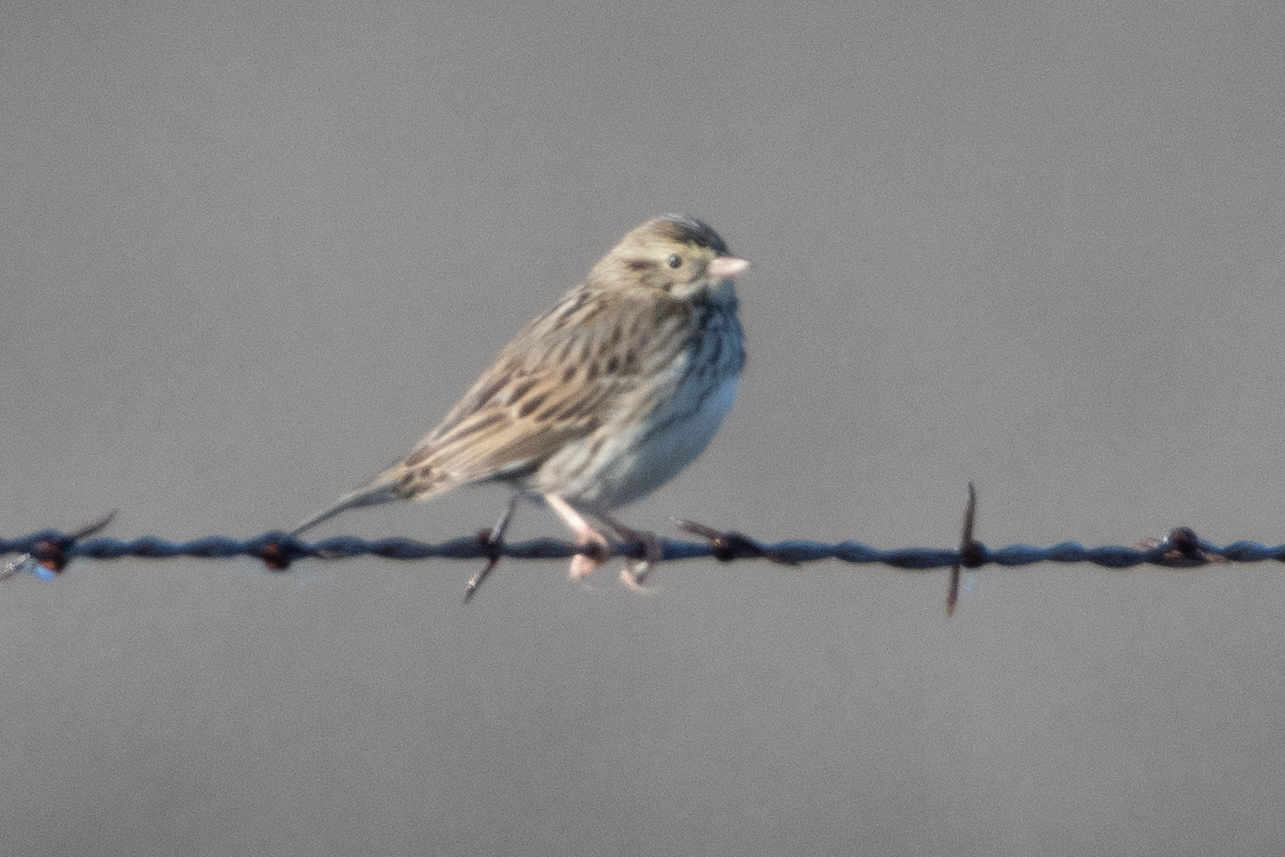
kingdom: Animalia
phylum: Chordata
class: Aves
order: Passeriformes
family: Passerellidae
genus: Passerculus
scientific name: Passerculus sandwichensis
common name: Savannah sparrow
